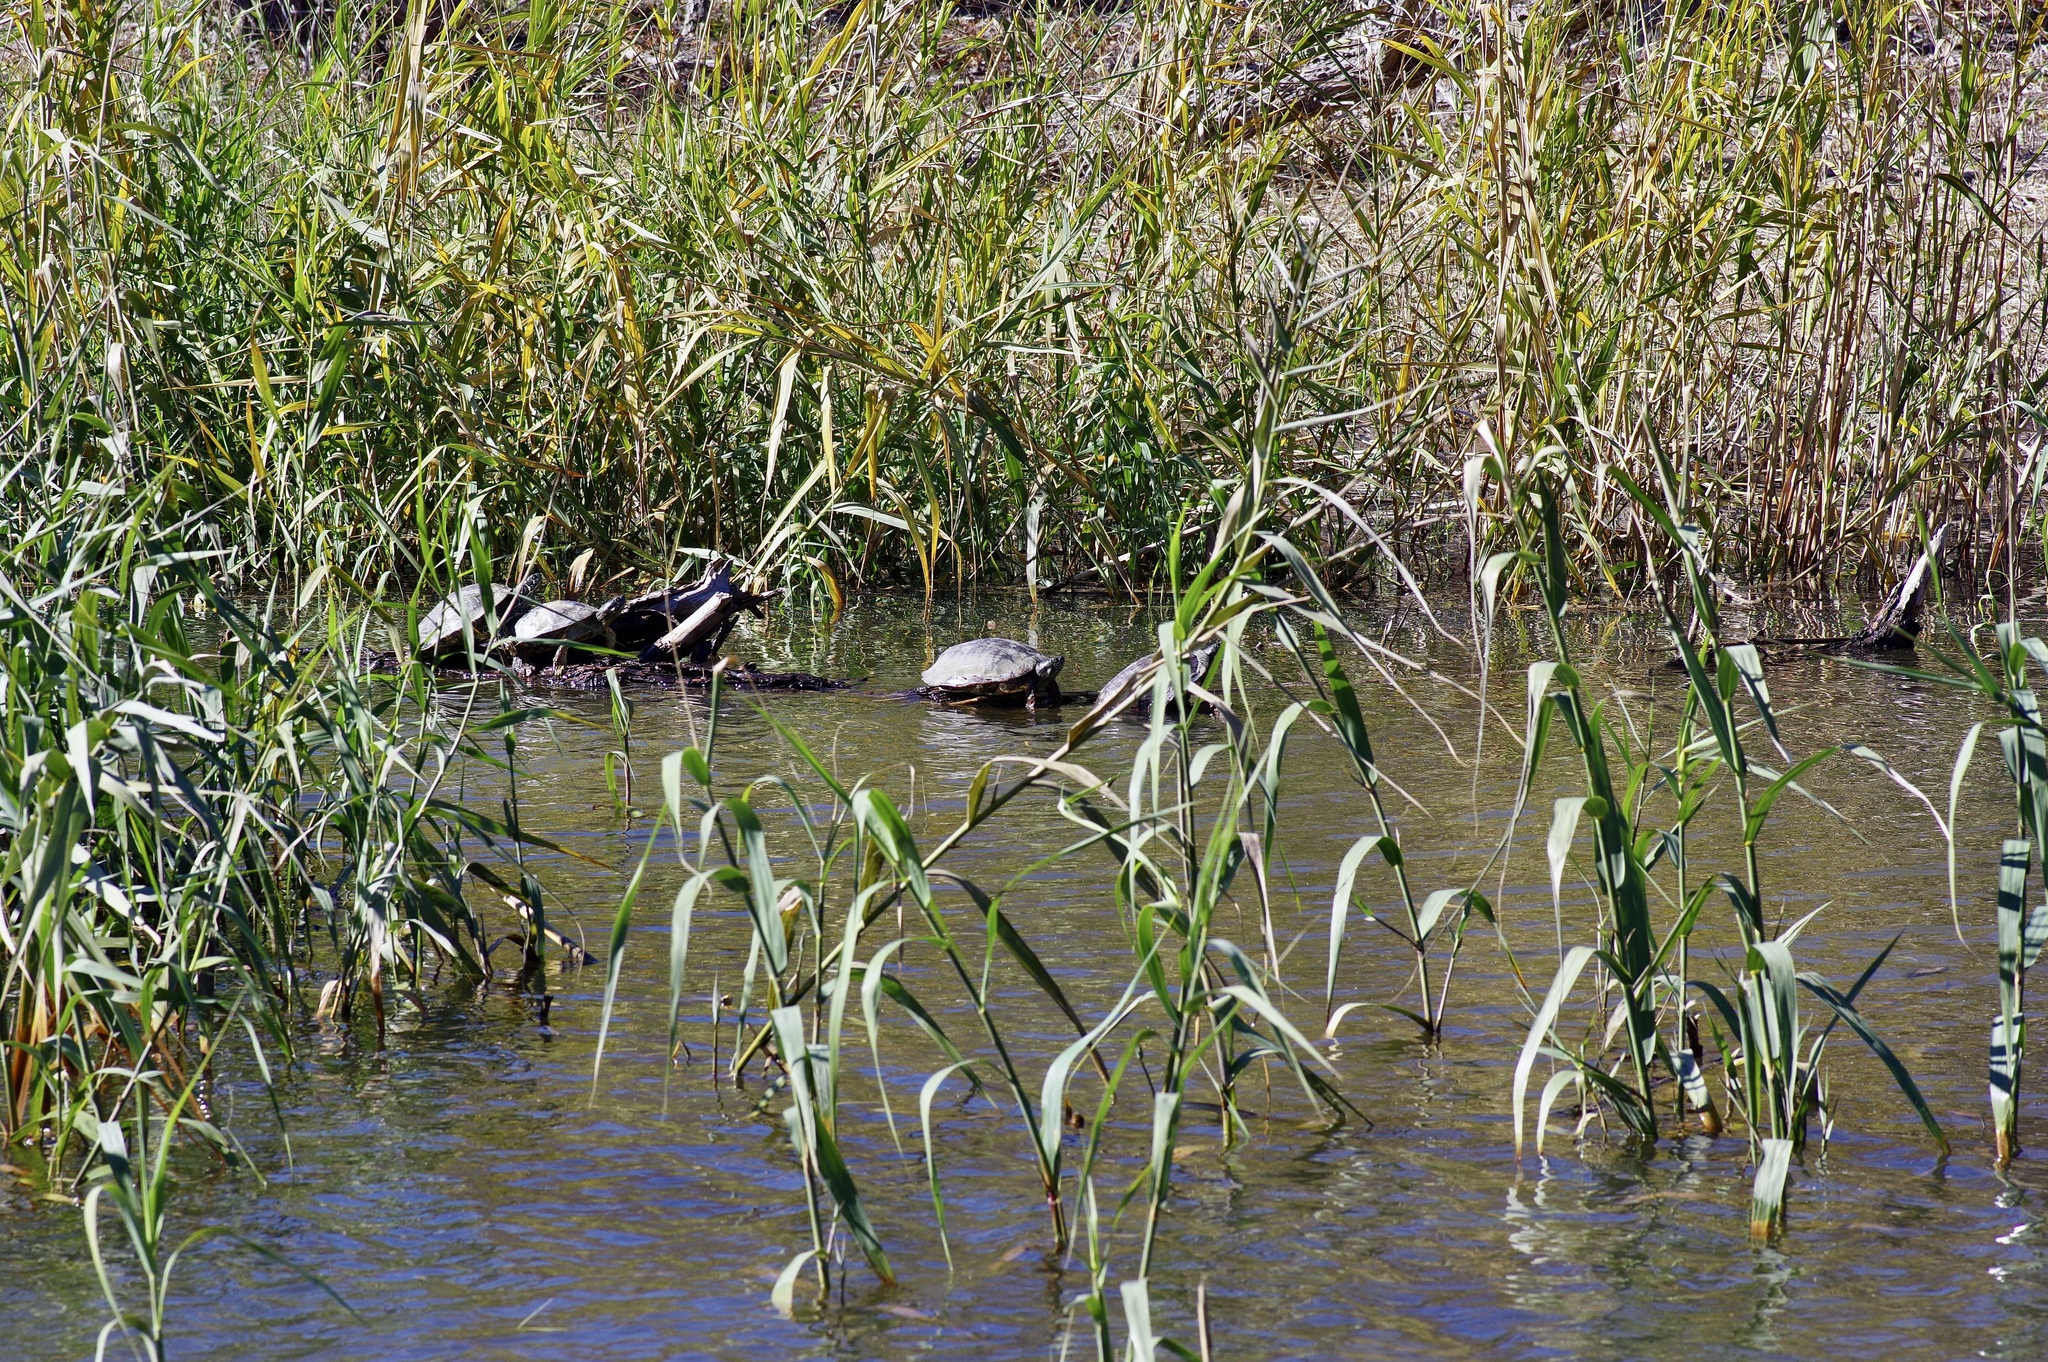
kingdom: Animalia
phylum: Chordata
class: Testudines
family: Emydidae
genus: Pseudemys
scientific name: Pseudemys texana
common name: Texas river cooter
